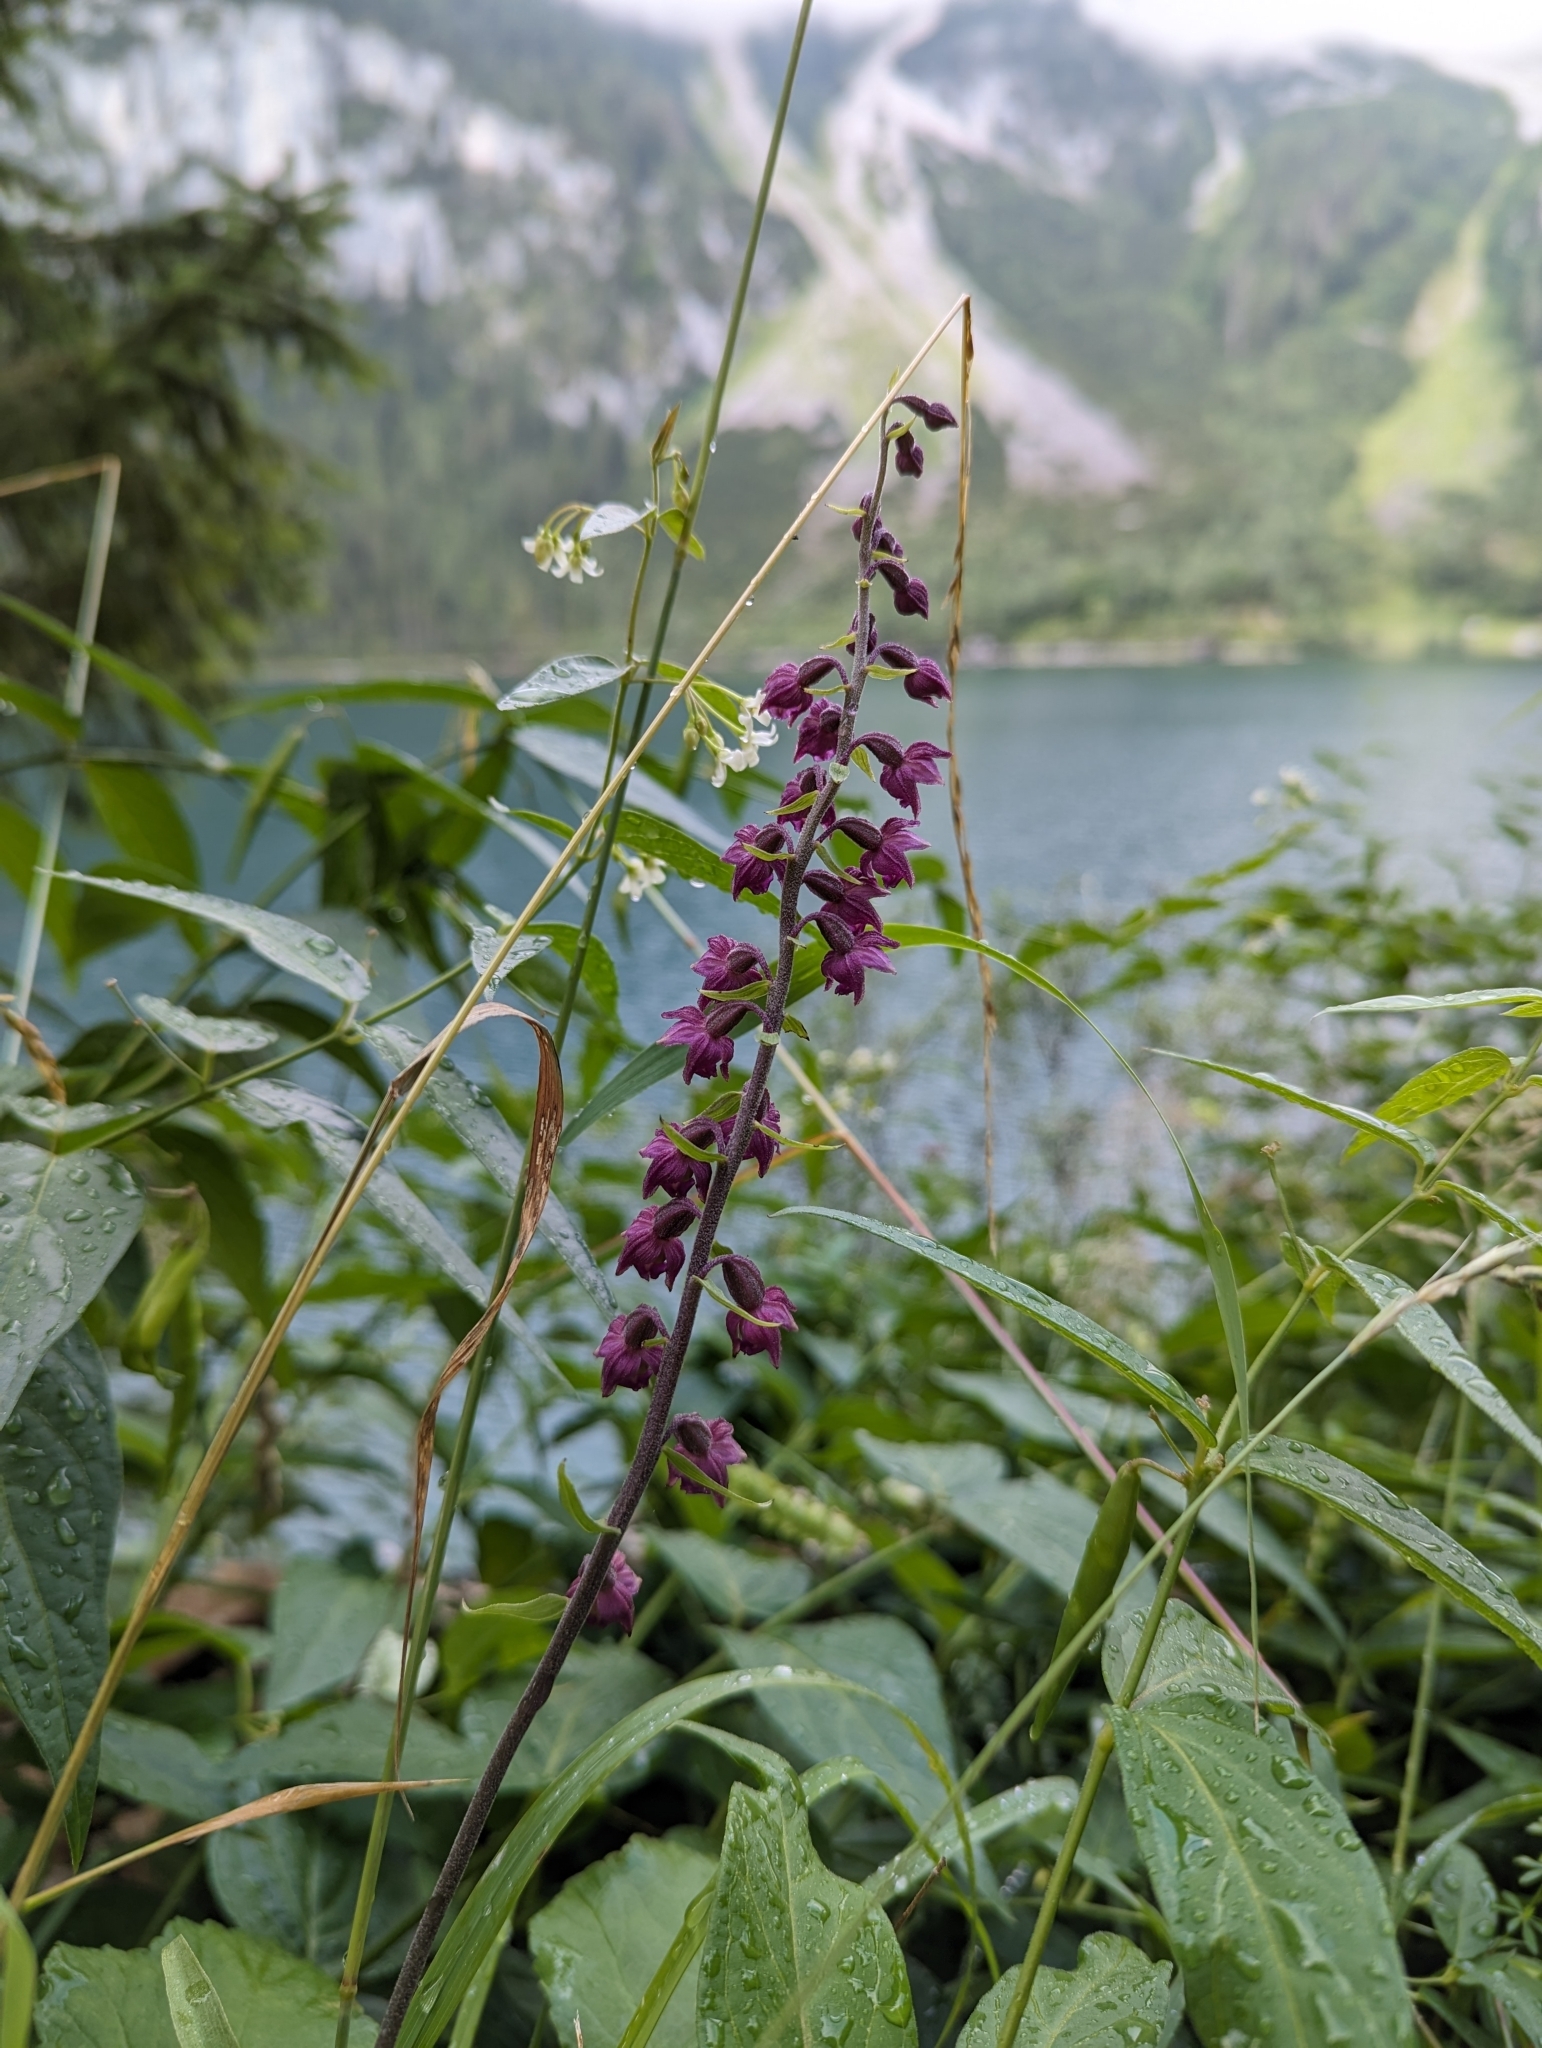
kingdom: Plantae
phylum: Tracheophyta
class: Liliopsida
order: Asparagales
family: Orchidaceae
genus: Epipactis
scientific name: Epipactis atrorubens
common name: Dark-red helleborine
